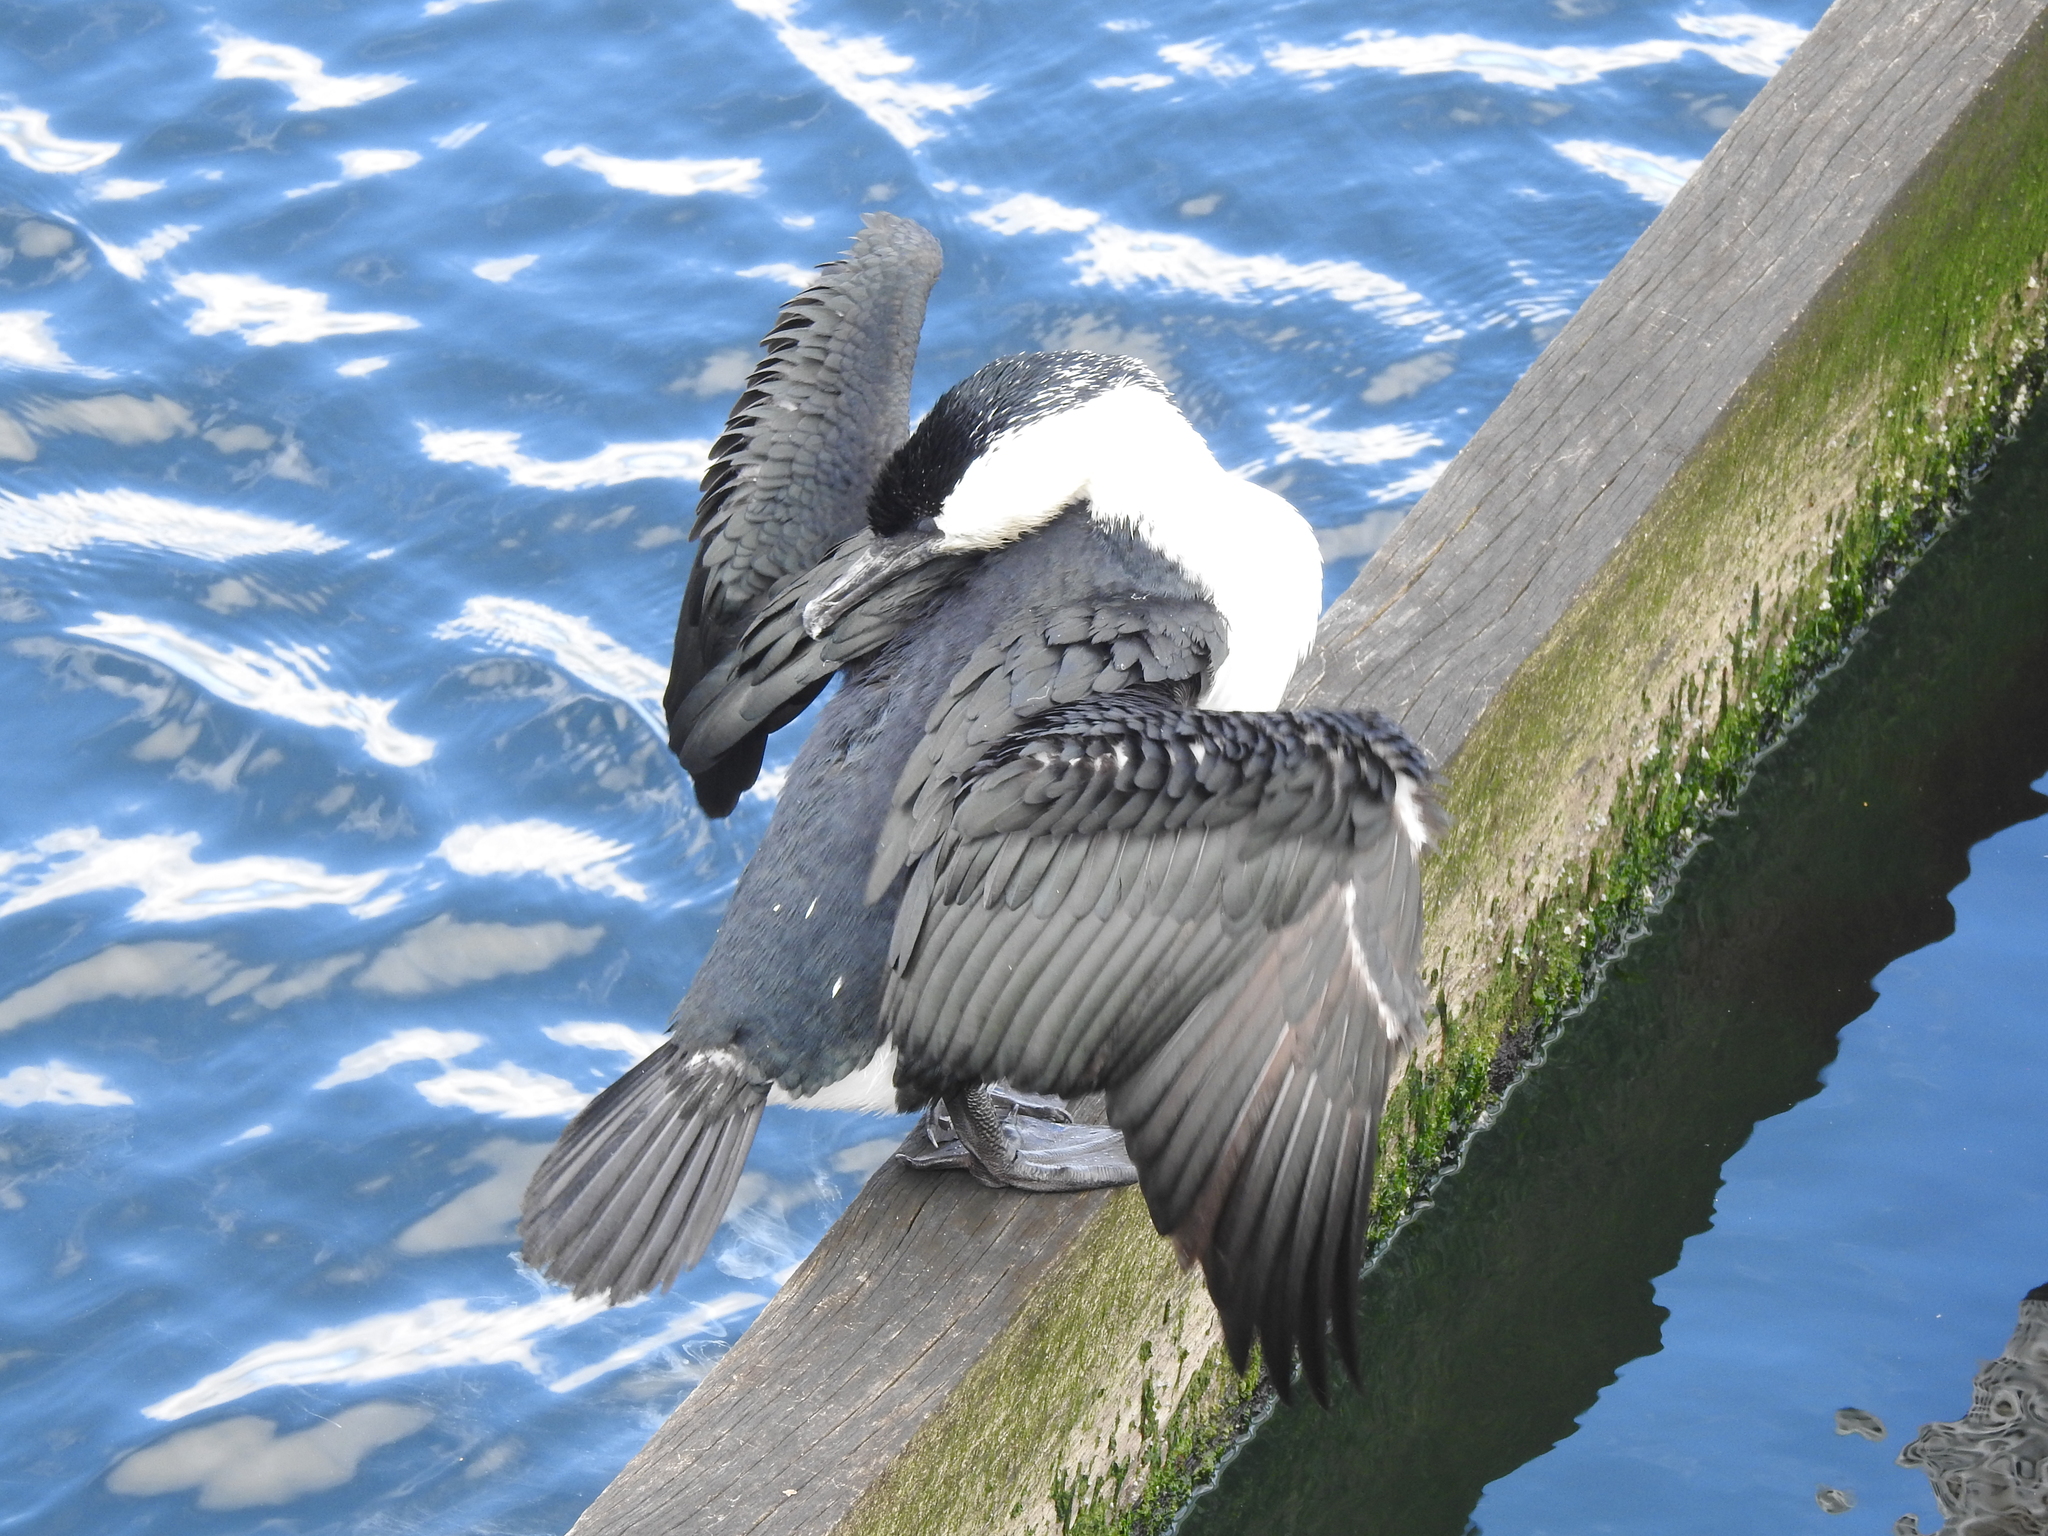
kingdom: Animalia
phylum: Chordata
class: Aves
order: Suliformes
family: Phalacrocoracidae
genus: Phalacrocorax
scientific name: Phalacrocorax fuscescens
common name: Black-faced cormorant
